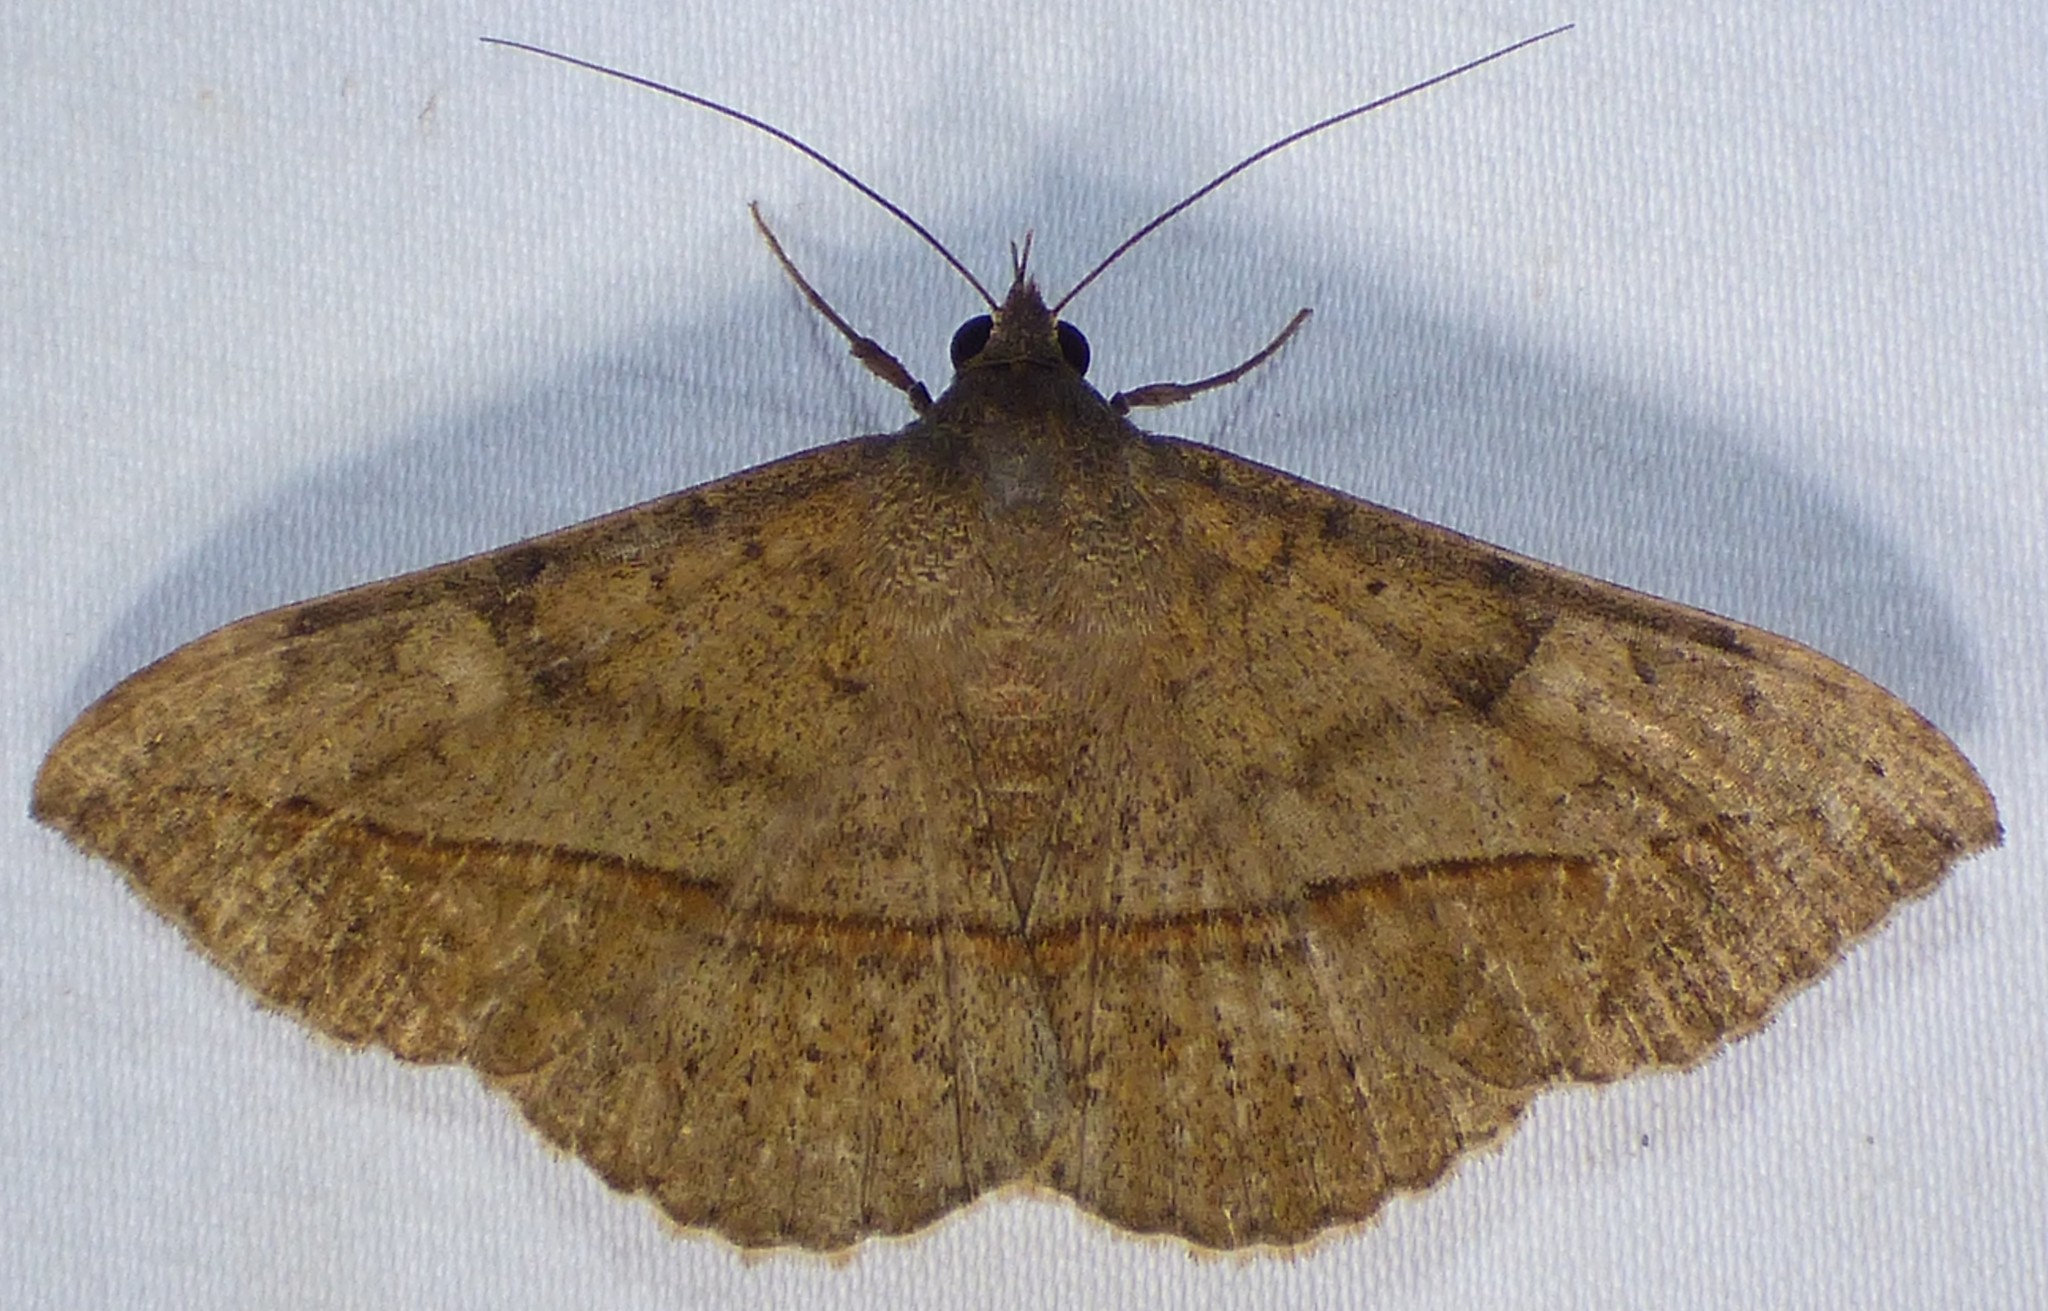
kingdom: Animalia
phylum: Arthropoda
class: Insecta
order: Lepidoptera
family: Erebidae
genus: Anticarsia
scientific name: Anticarsia gemmatalis
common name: Cutworm moth
